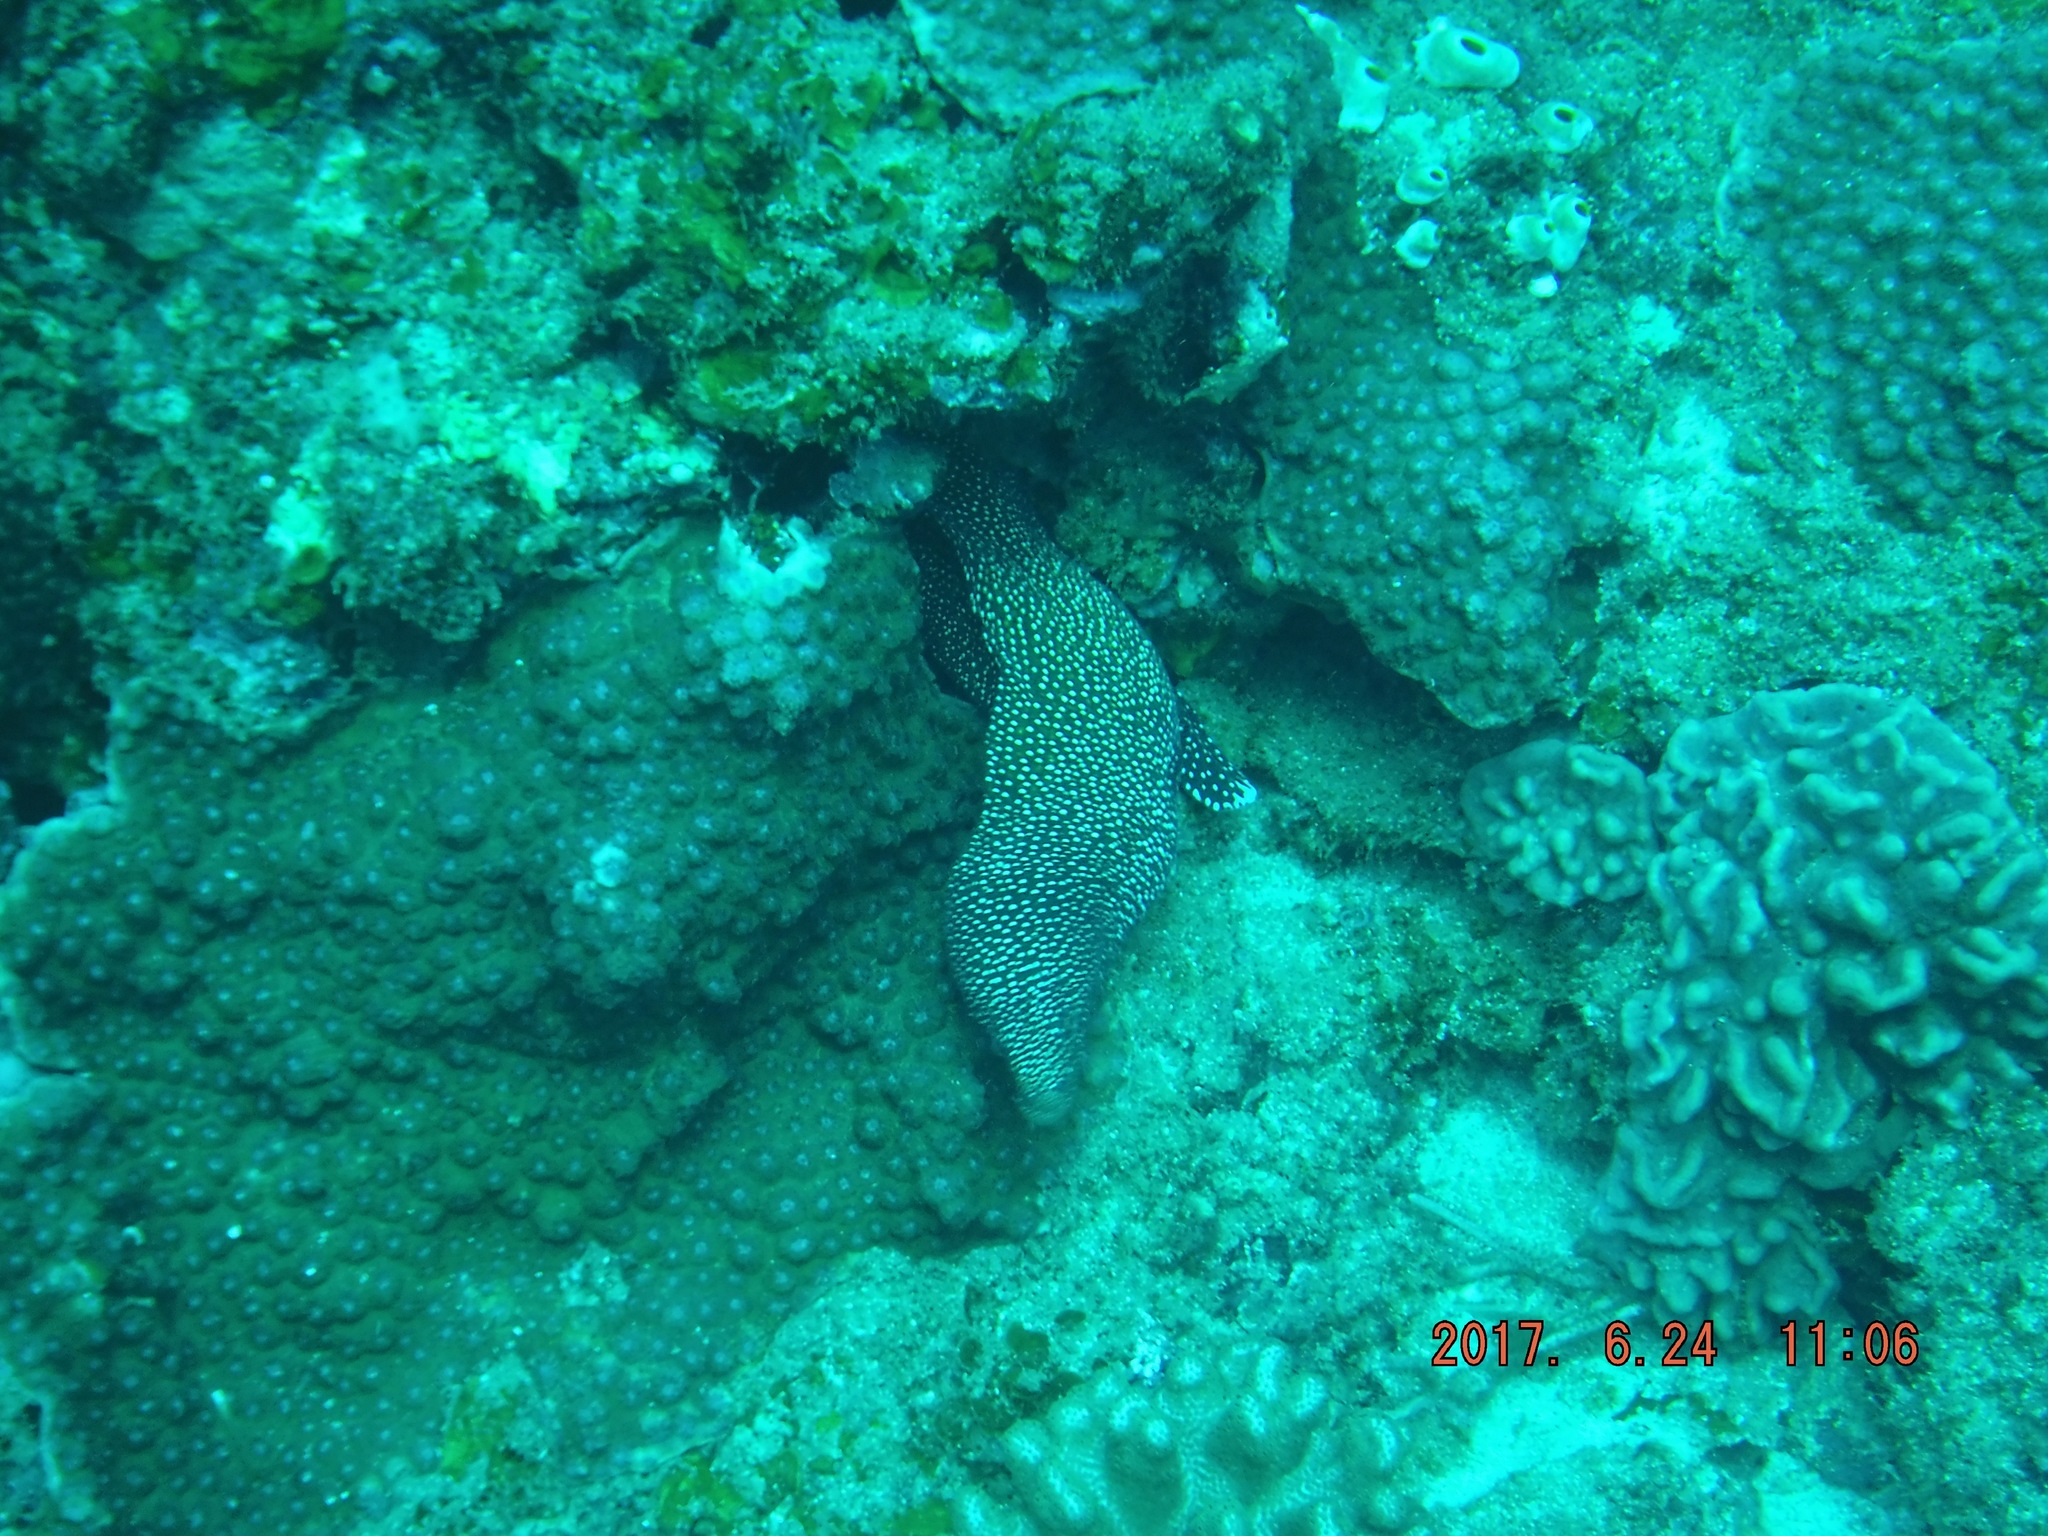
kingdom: Animalia
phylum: Chordata
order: Anguilliformes
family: Muraenidae
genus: Gymnothorax
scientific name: Gymnothorax meleagris
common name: Guineafowl moray
